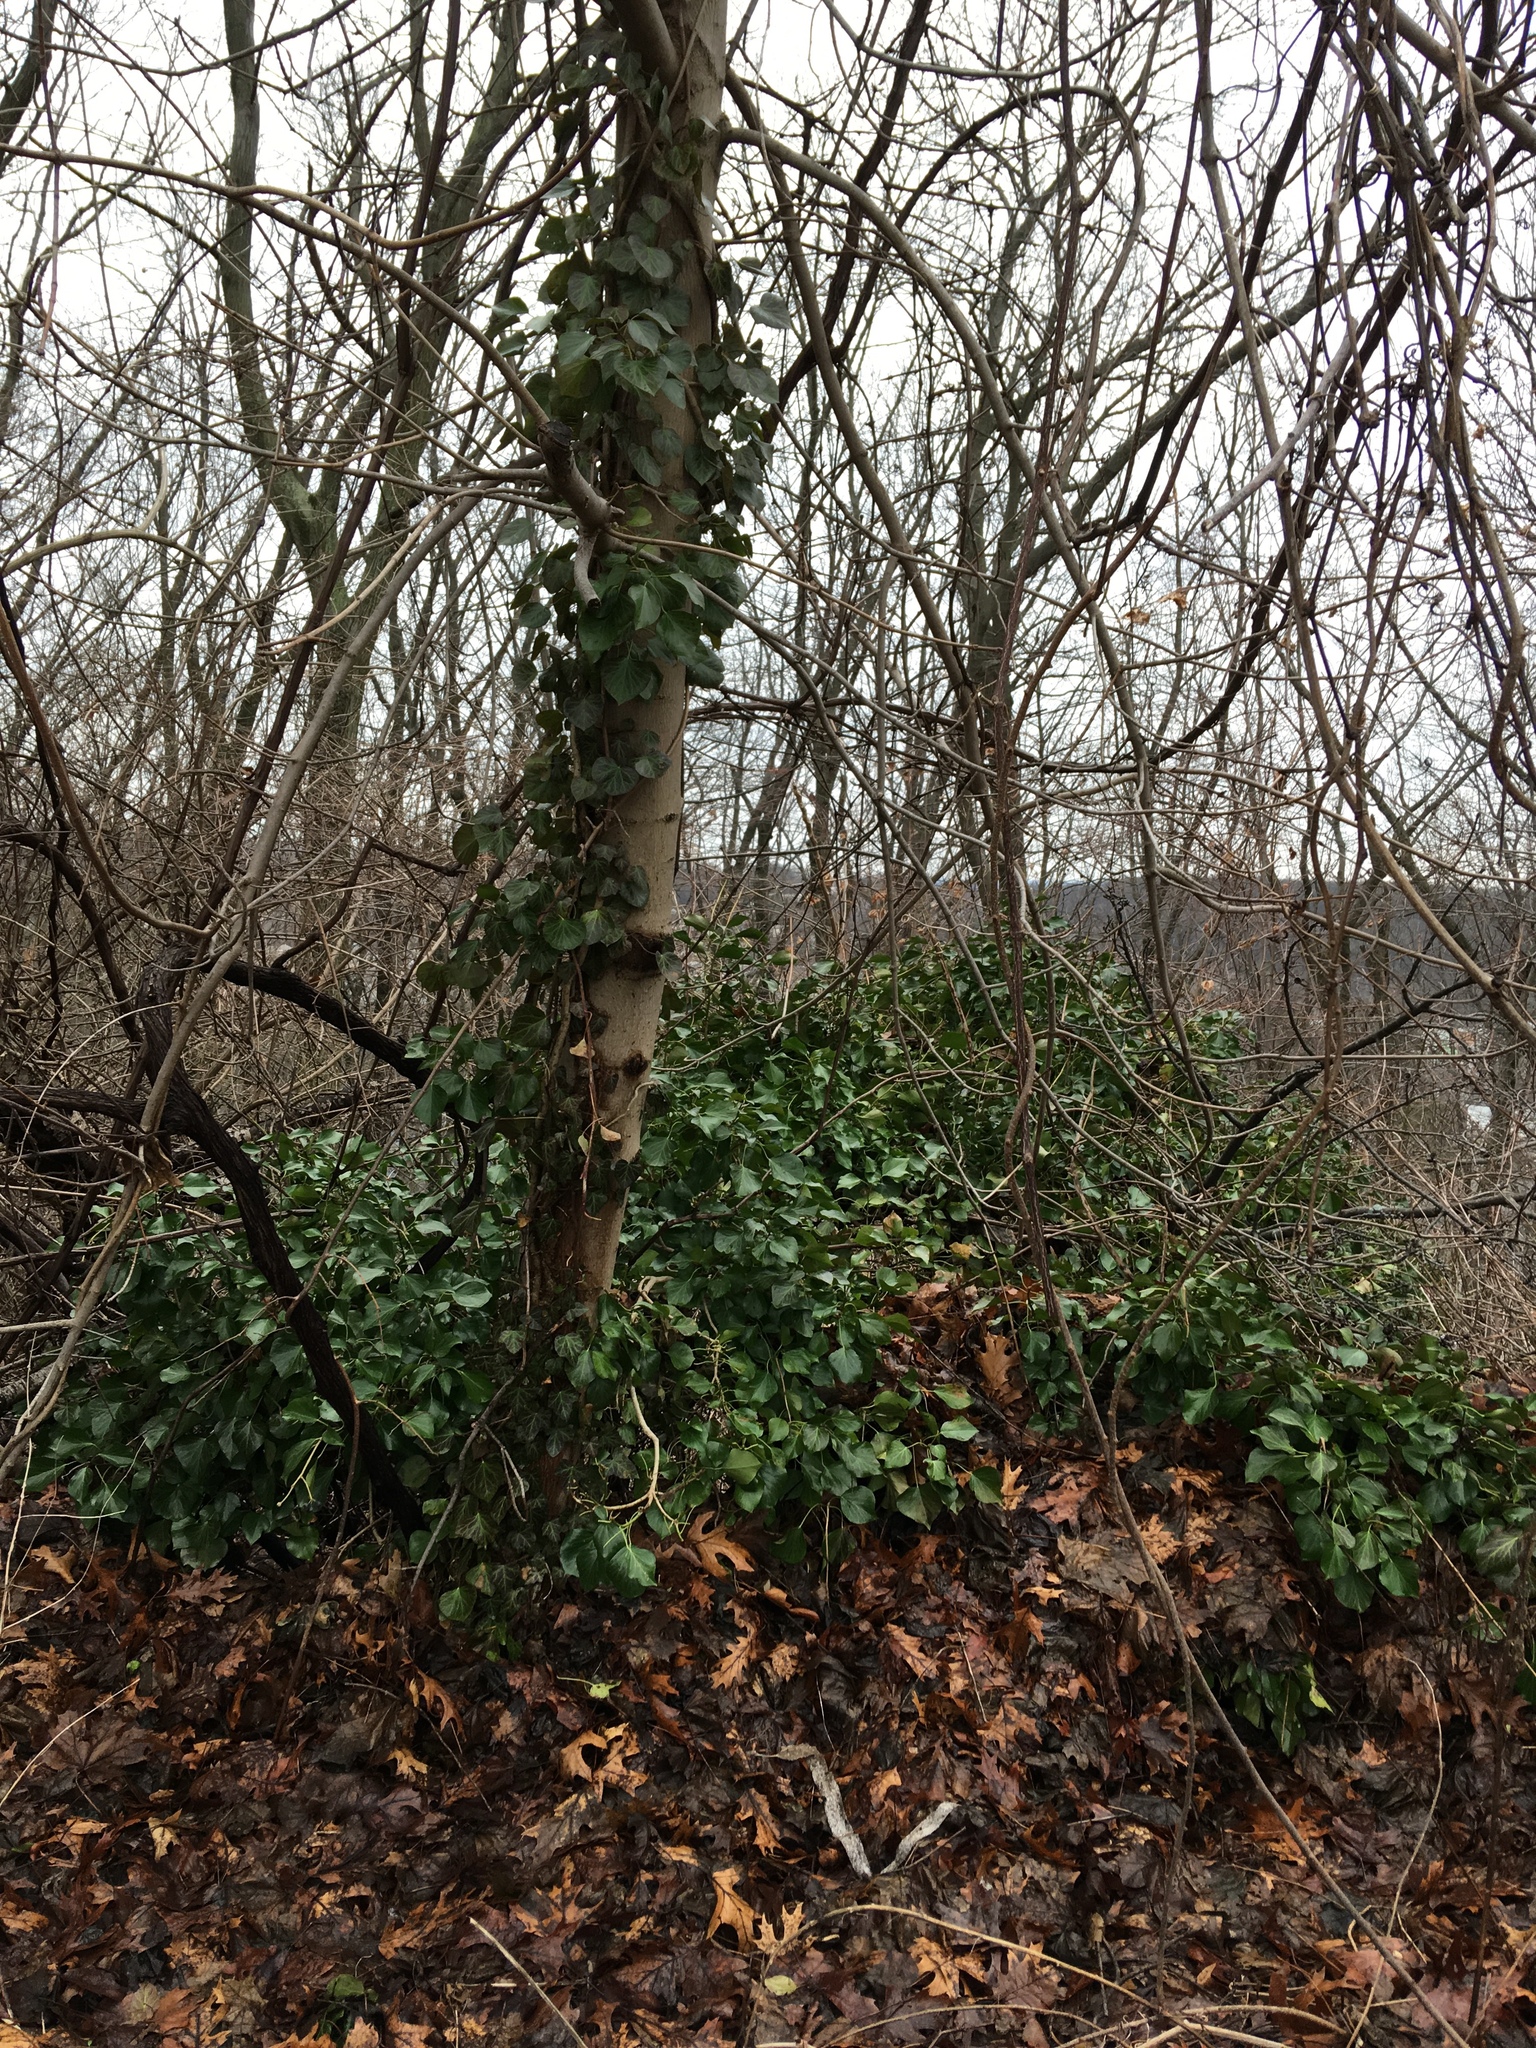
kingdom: Plantae
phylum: Tracheophyta
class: Magnoliopsida
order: Apiales
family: Araliaceae
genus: Hedera
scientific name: Hedera helix
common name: Ivy
